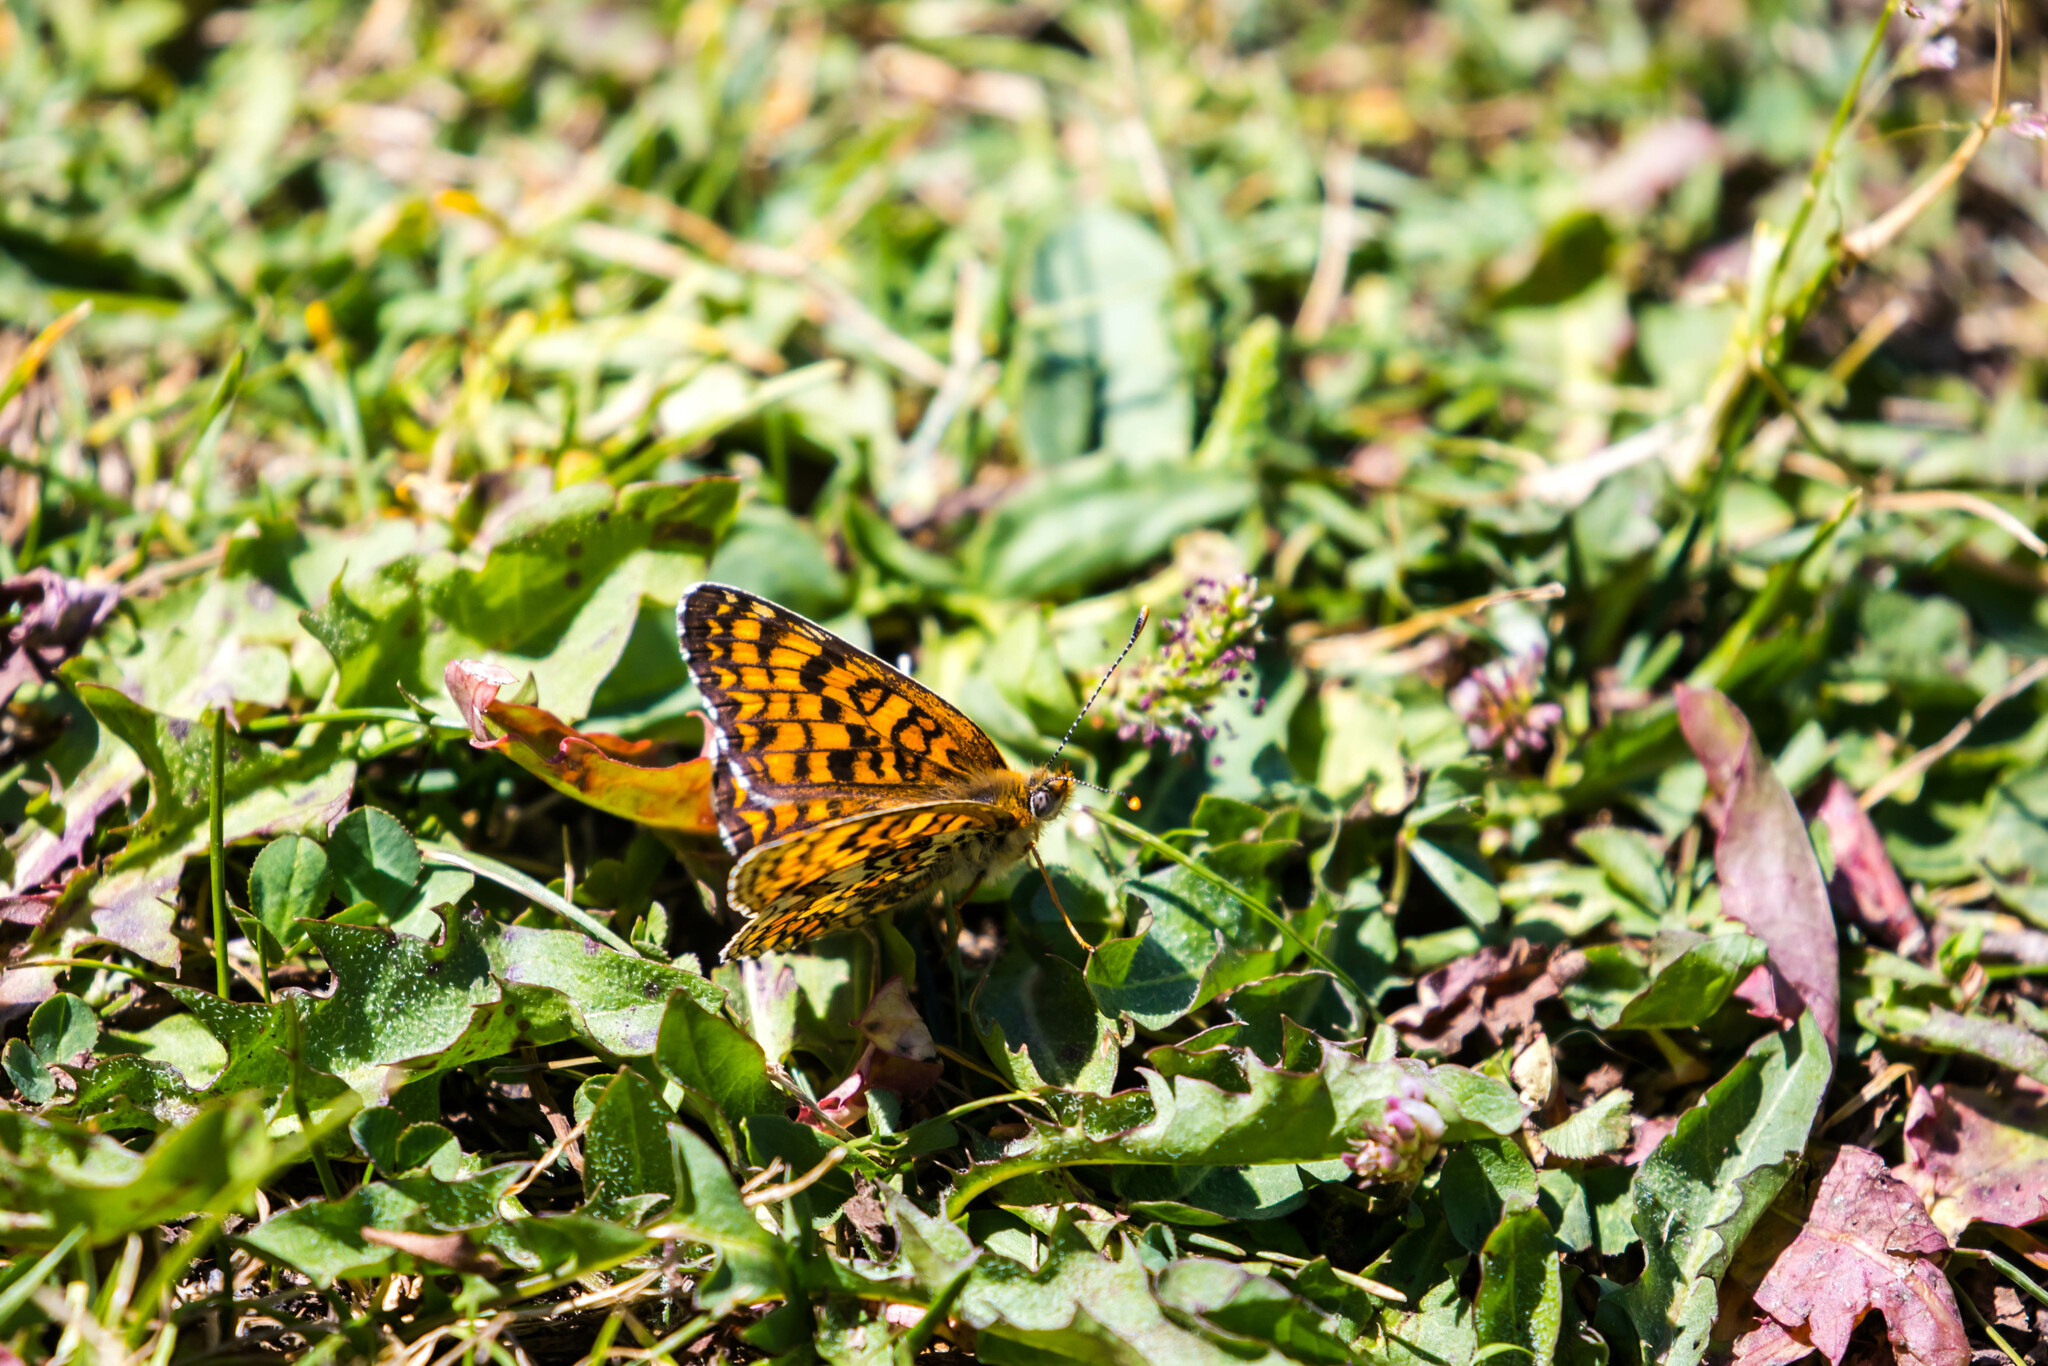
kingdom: Animalia
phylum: Arthropoda
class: Insecta
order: Lepidoptera
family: Nymphalidae
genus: Melitaea
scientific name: Melitaea phoebe
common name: Knapweed fritillary
